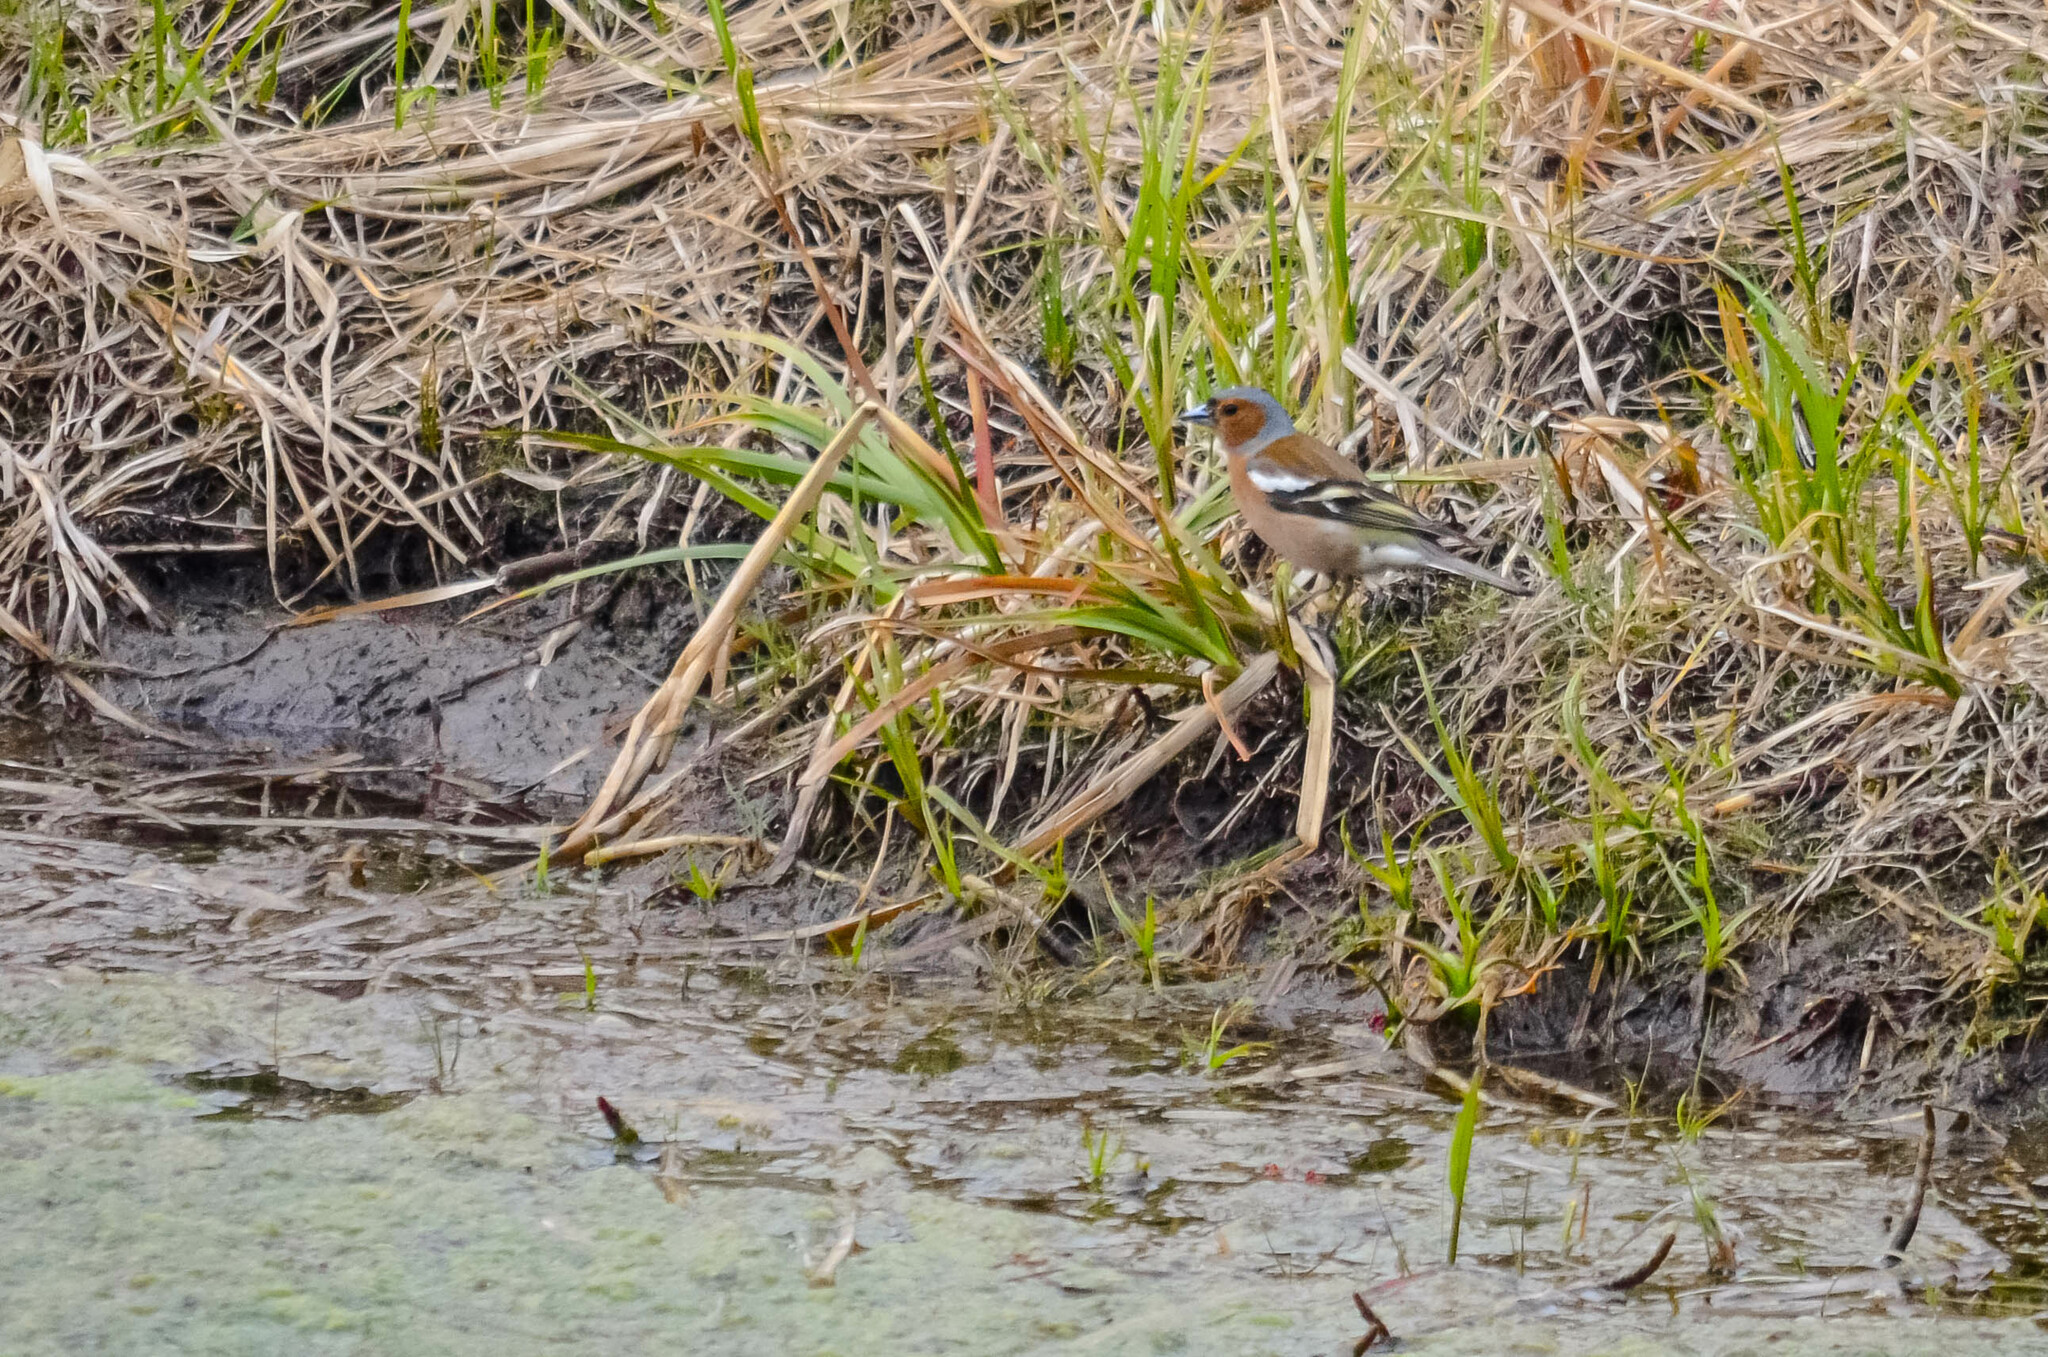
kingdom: Animalia
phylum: Chordata
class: Aves
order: Passeriformes
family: Fringillidae
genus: Fringilla
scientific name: Fringilla coelebs
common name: Common chaffinch
